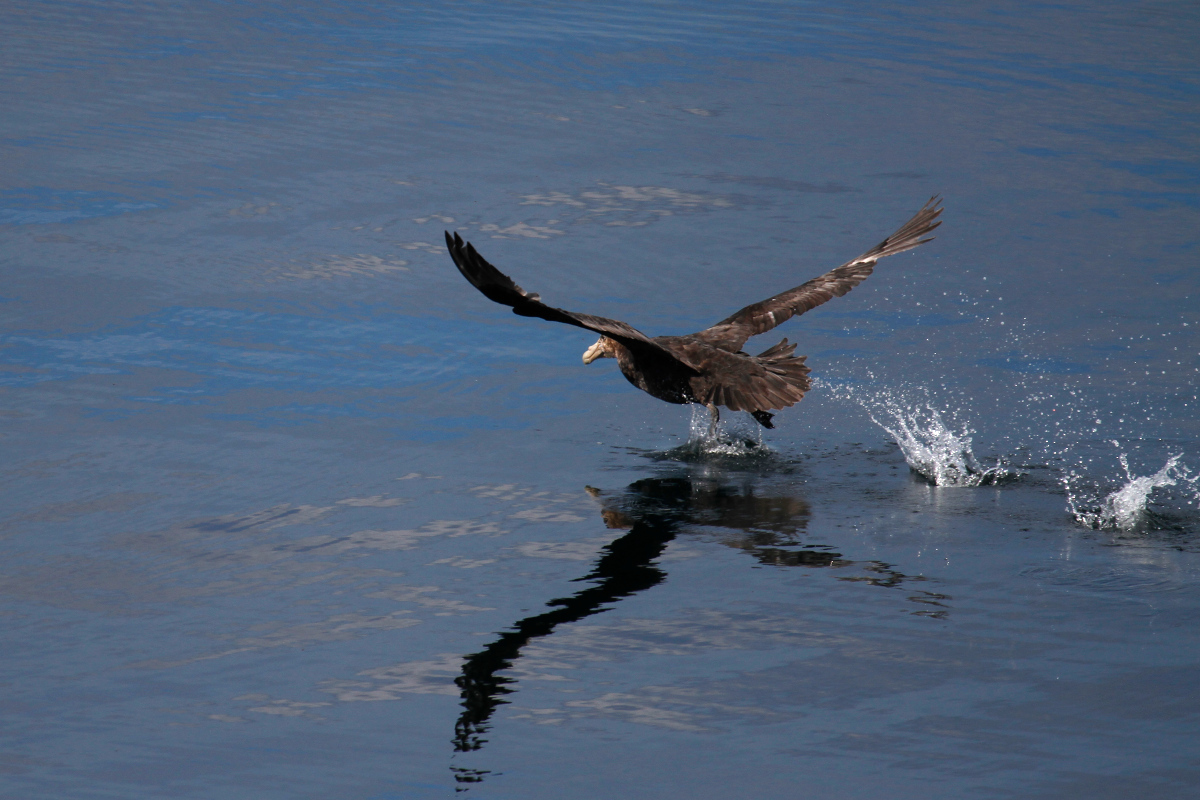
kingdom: Animalia
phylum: Chordata
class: Aves
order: Procellariiformes
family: Procellariidae
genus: Macronectes
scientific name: Macronectes giganteus
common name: Southern giant petrel
